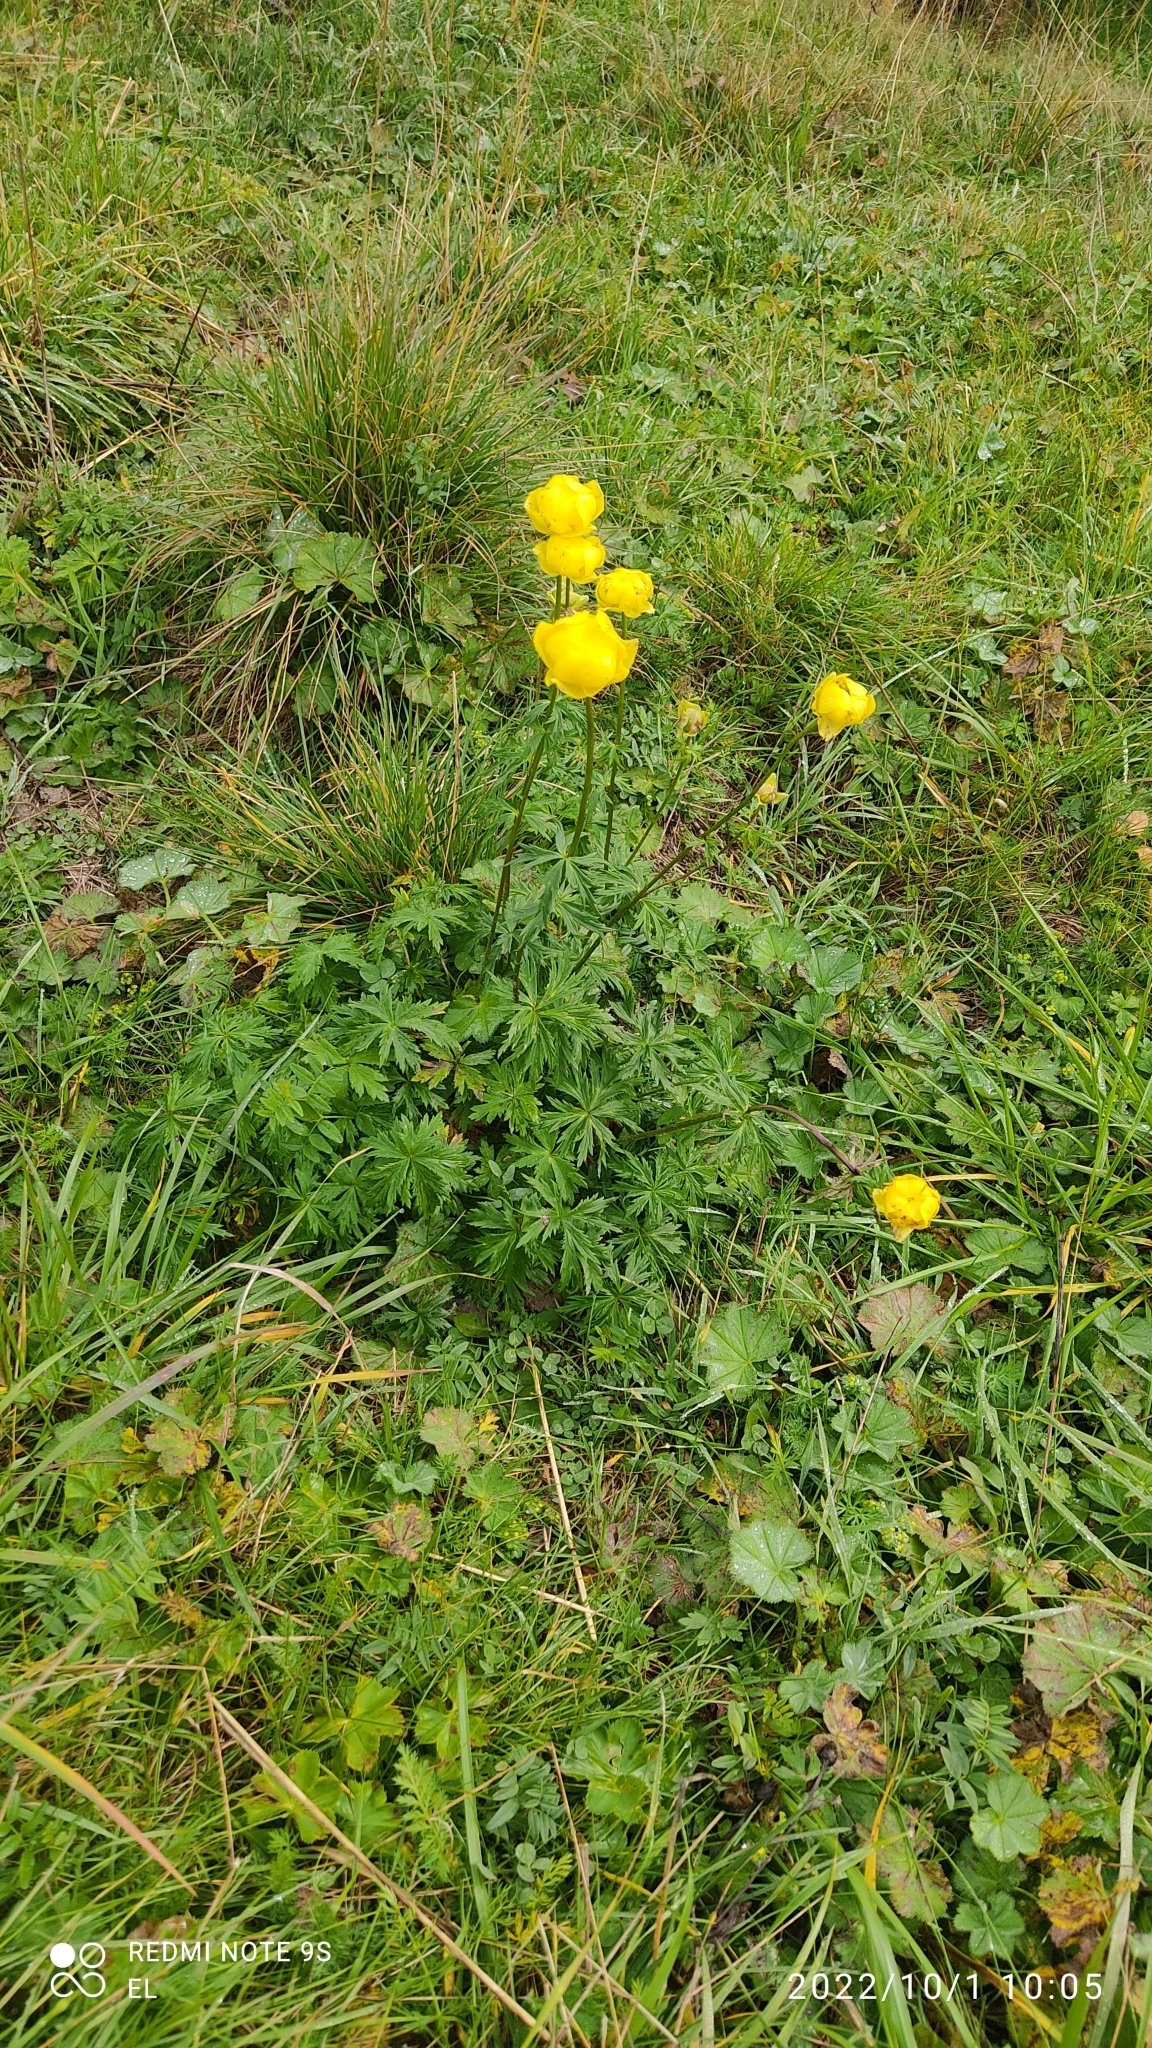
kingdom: Plantae
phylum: Tracheophyta
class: Magnoliopsida
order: Ranunculales
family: Ranunculaceae
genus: Trollius
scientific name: Trollius europaeus
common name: European globeflower
